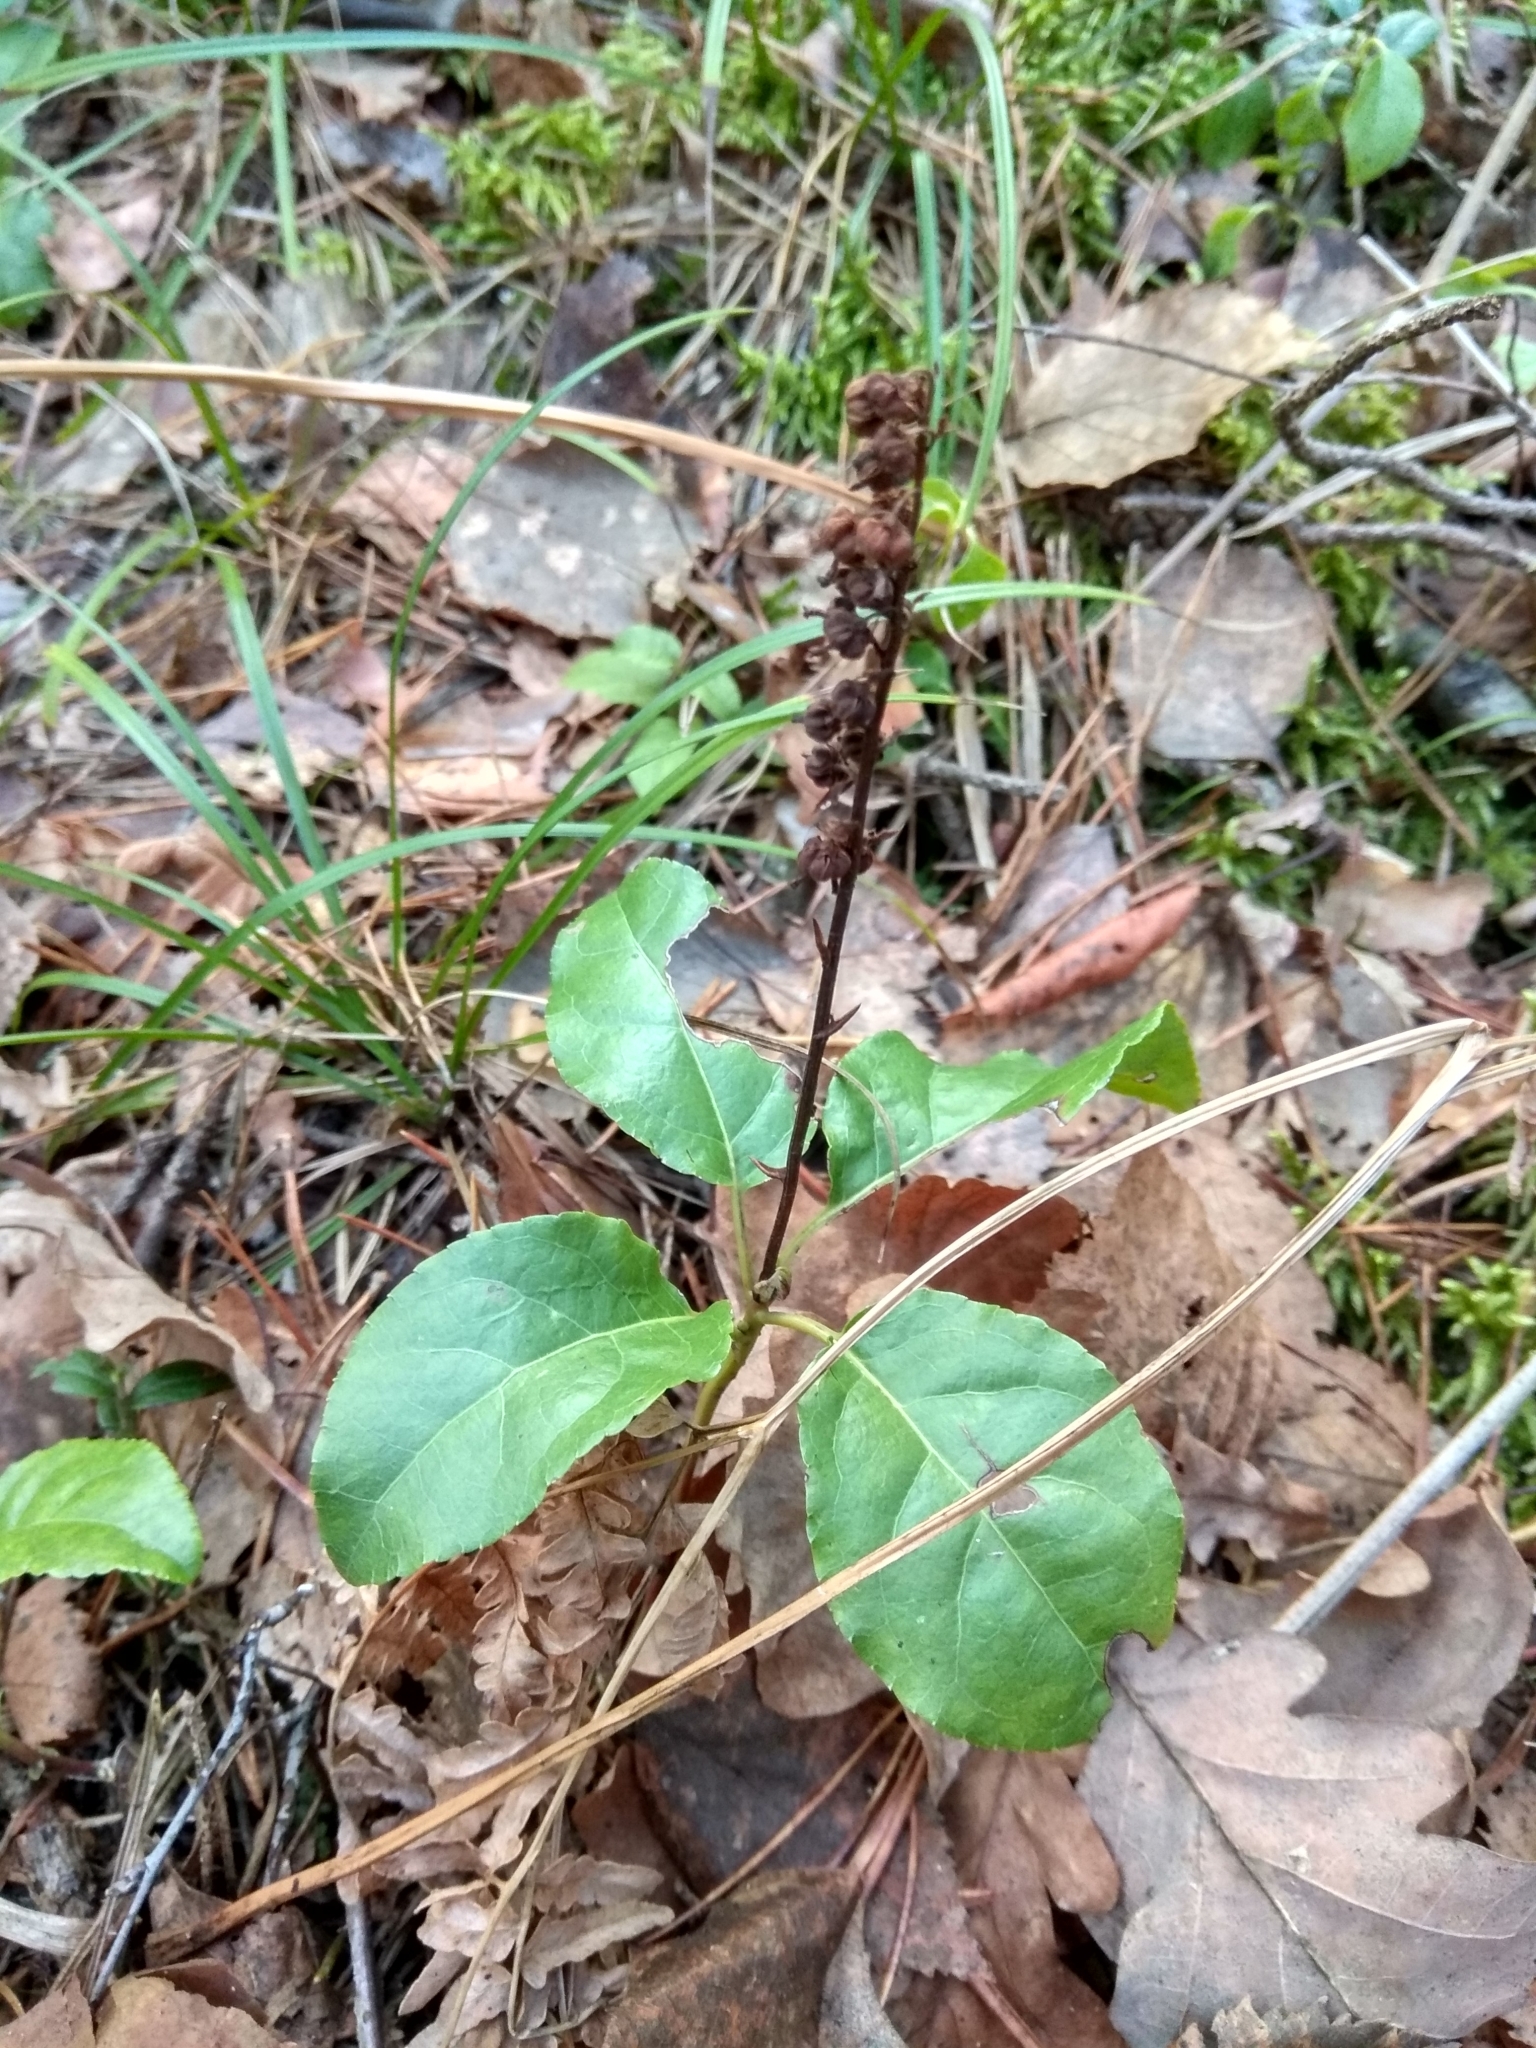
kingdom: Plantae
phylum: Tracheophyta
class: Magnoliopsida
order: Ericales
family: Ericaceae
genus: Orthilia
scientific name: Orthilia secunda
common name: One-sided orthilia
